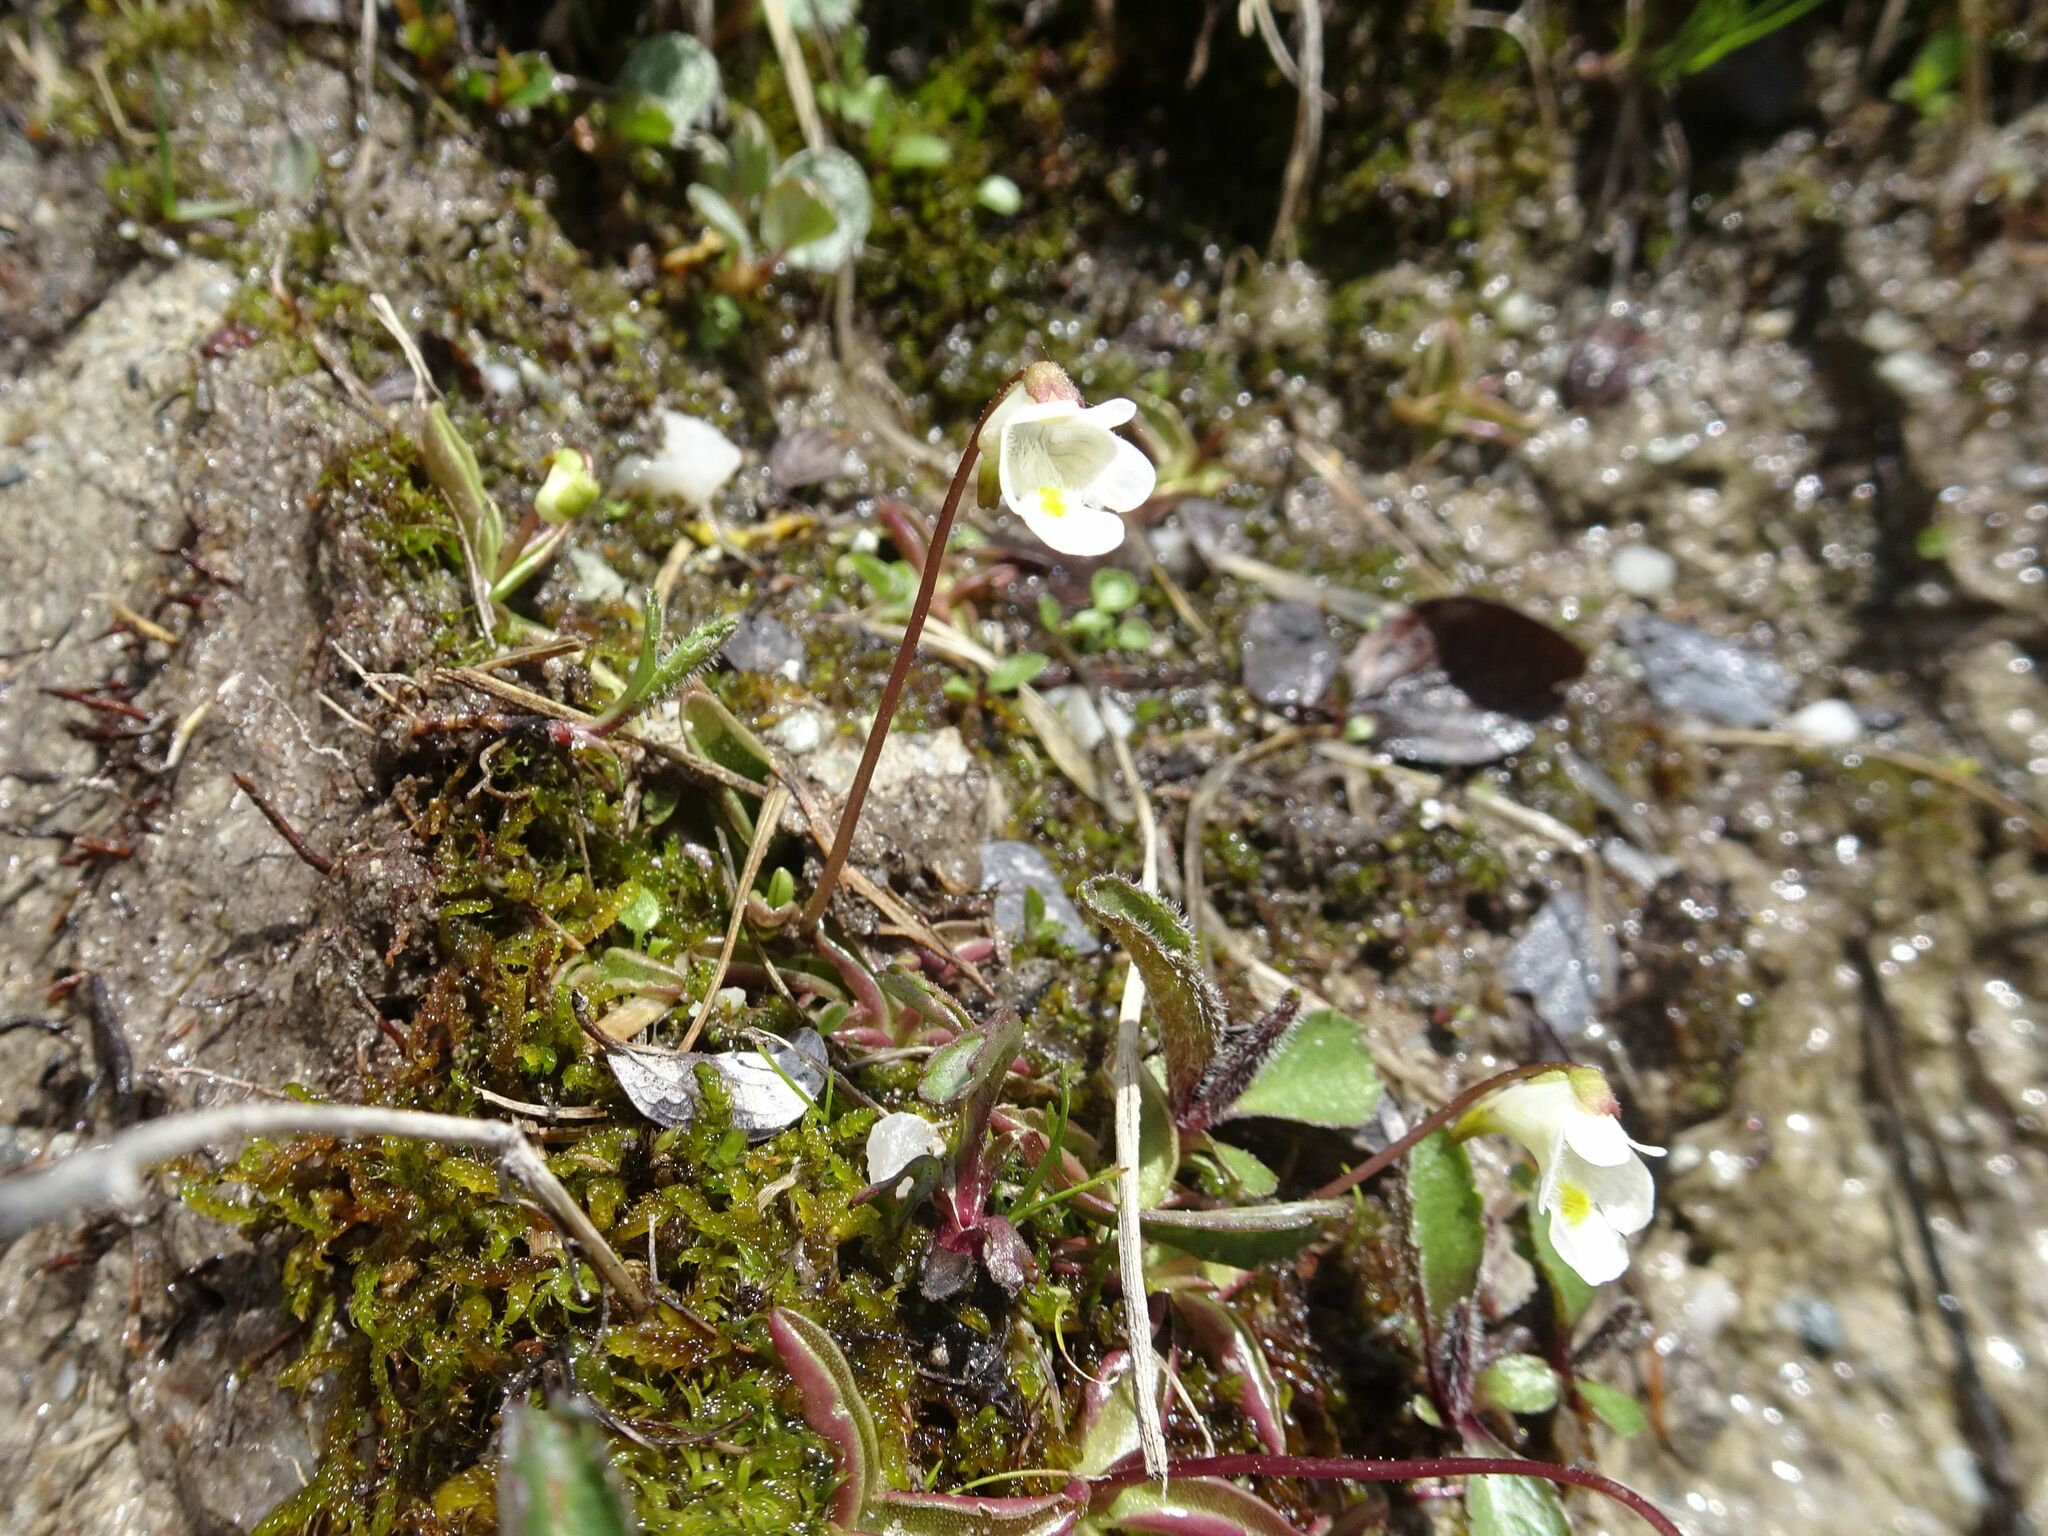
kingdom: Plantae
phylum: Tracheophyta
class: Magnoliopsida
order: Lamiales
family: Lentibulariaceae
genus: Pinguicula
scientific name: Pinguicula alpina
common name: Alpine butterwort
